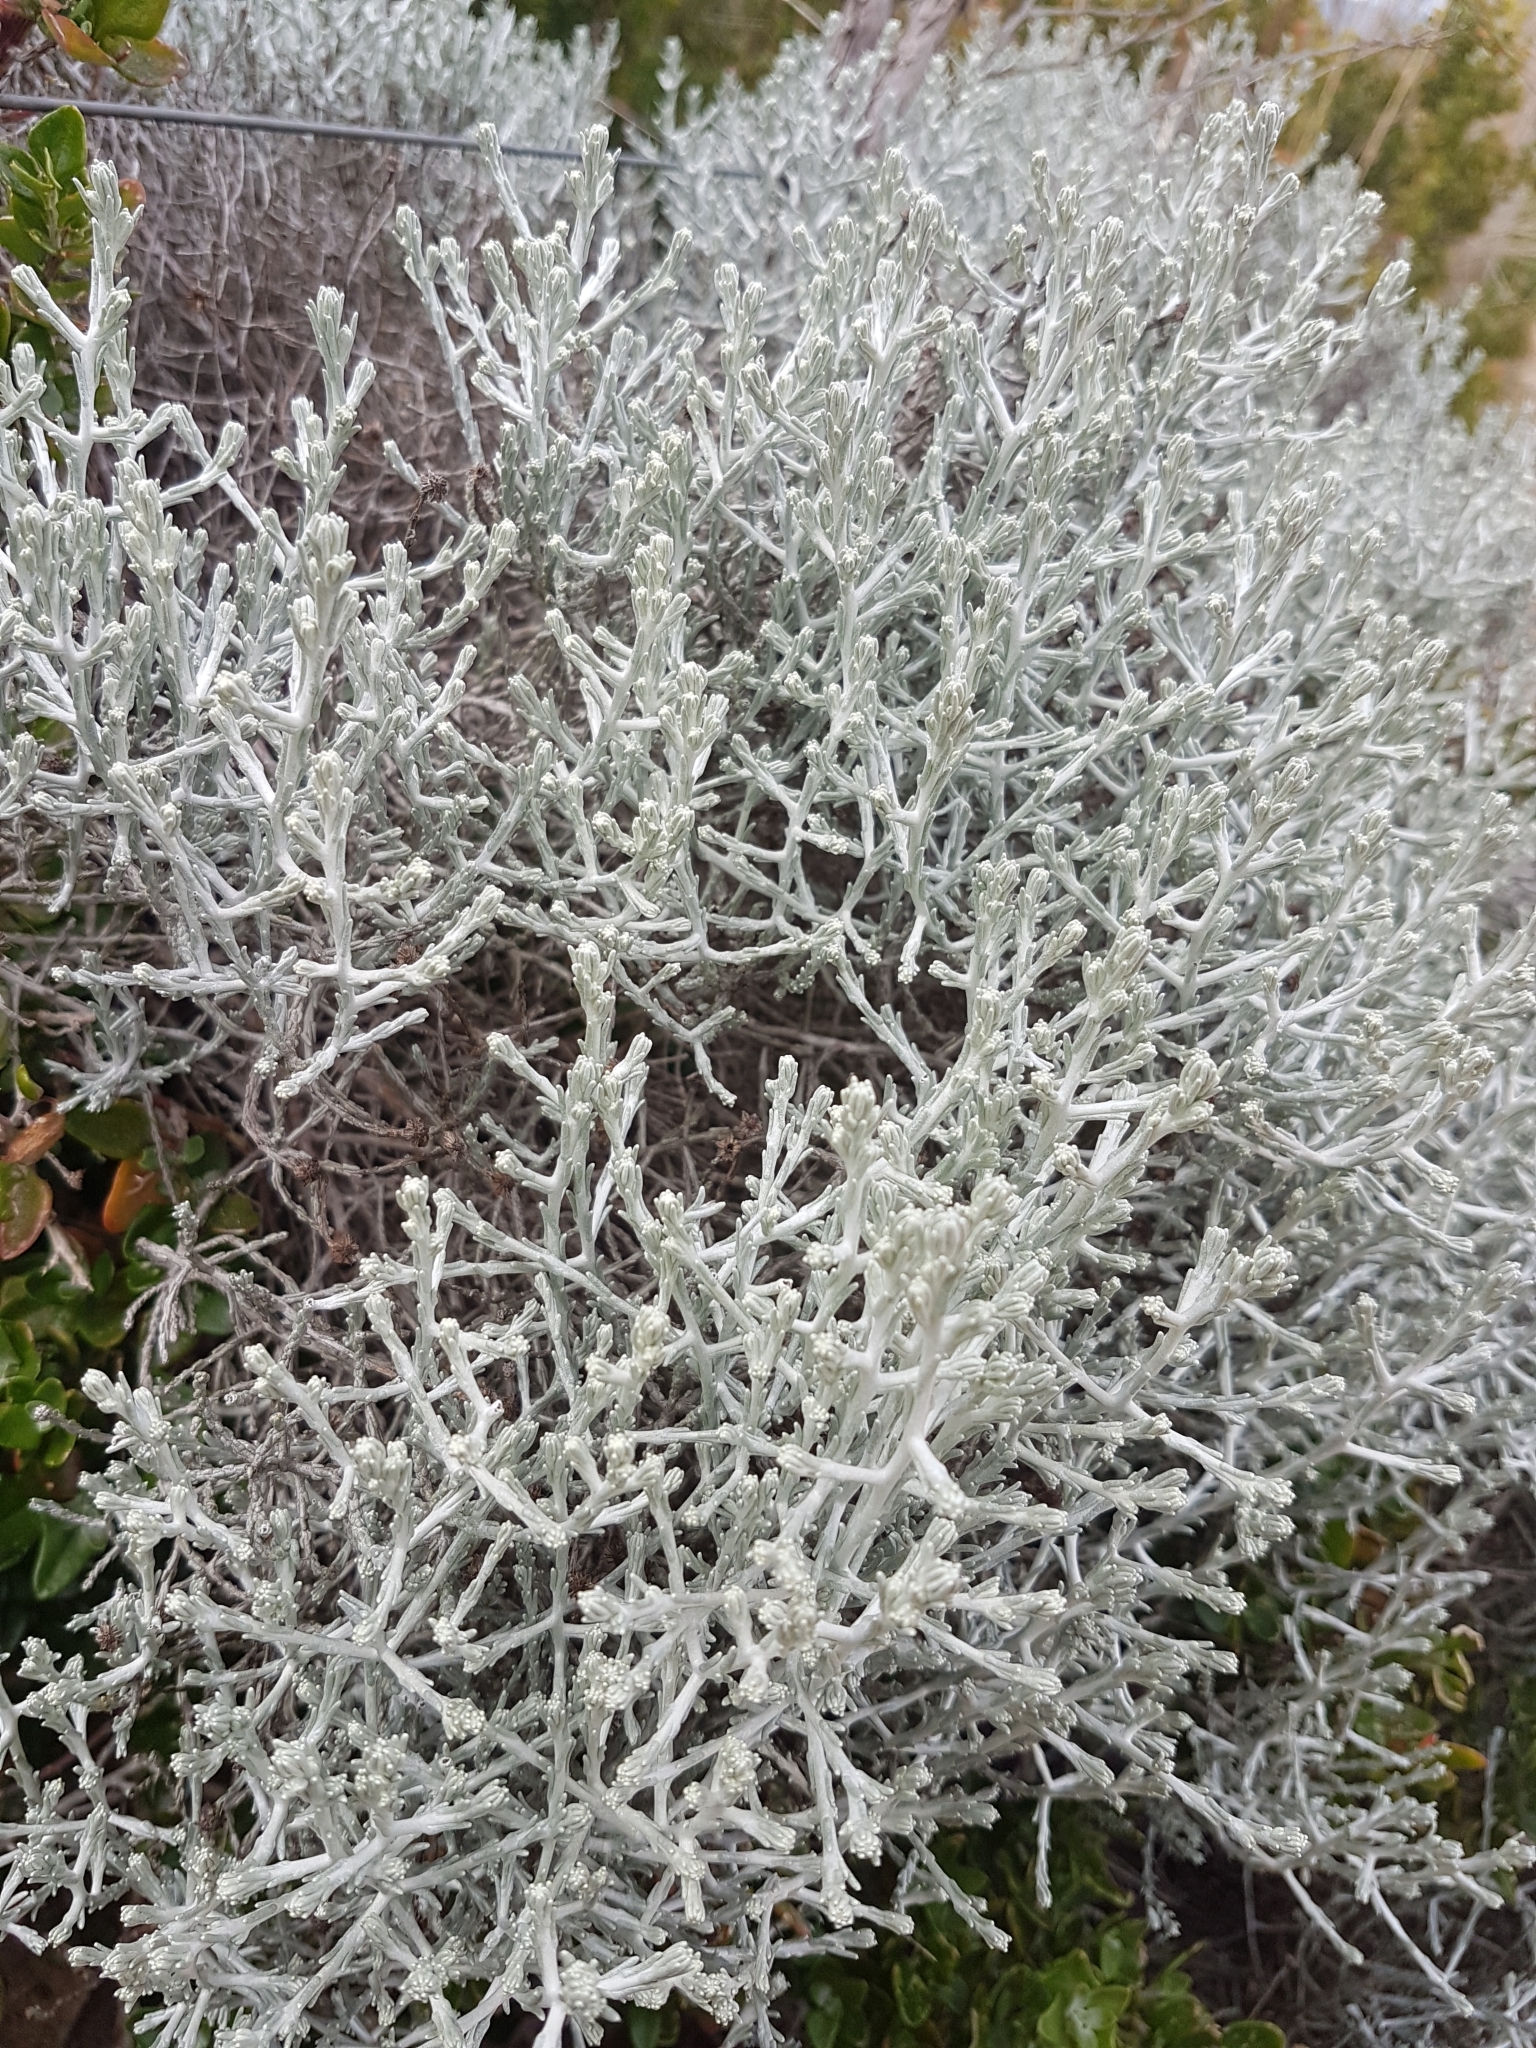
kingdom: Plantae
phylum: Tracheophyta
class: Magnoliopsida
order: Asterales
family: Asteraceae
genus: Calocephalus
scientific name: Calocephalus brownii
